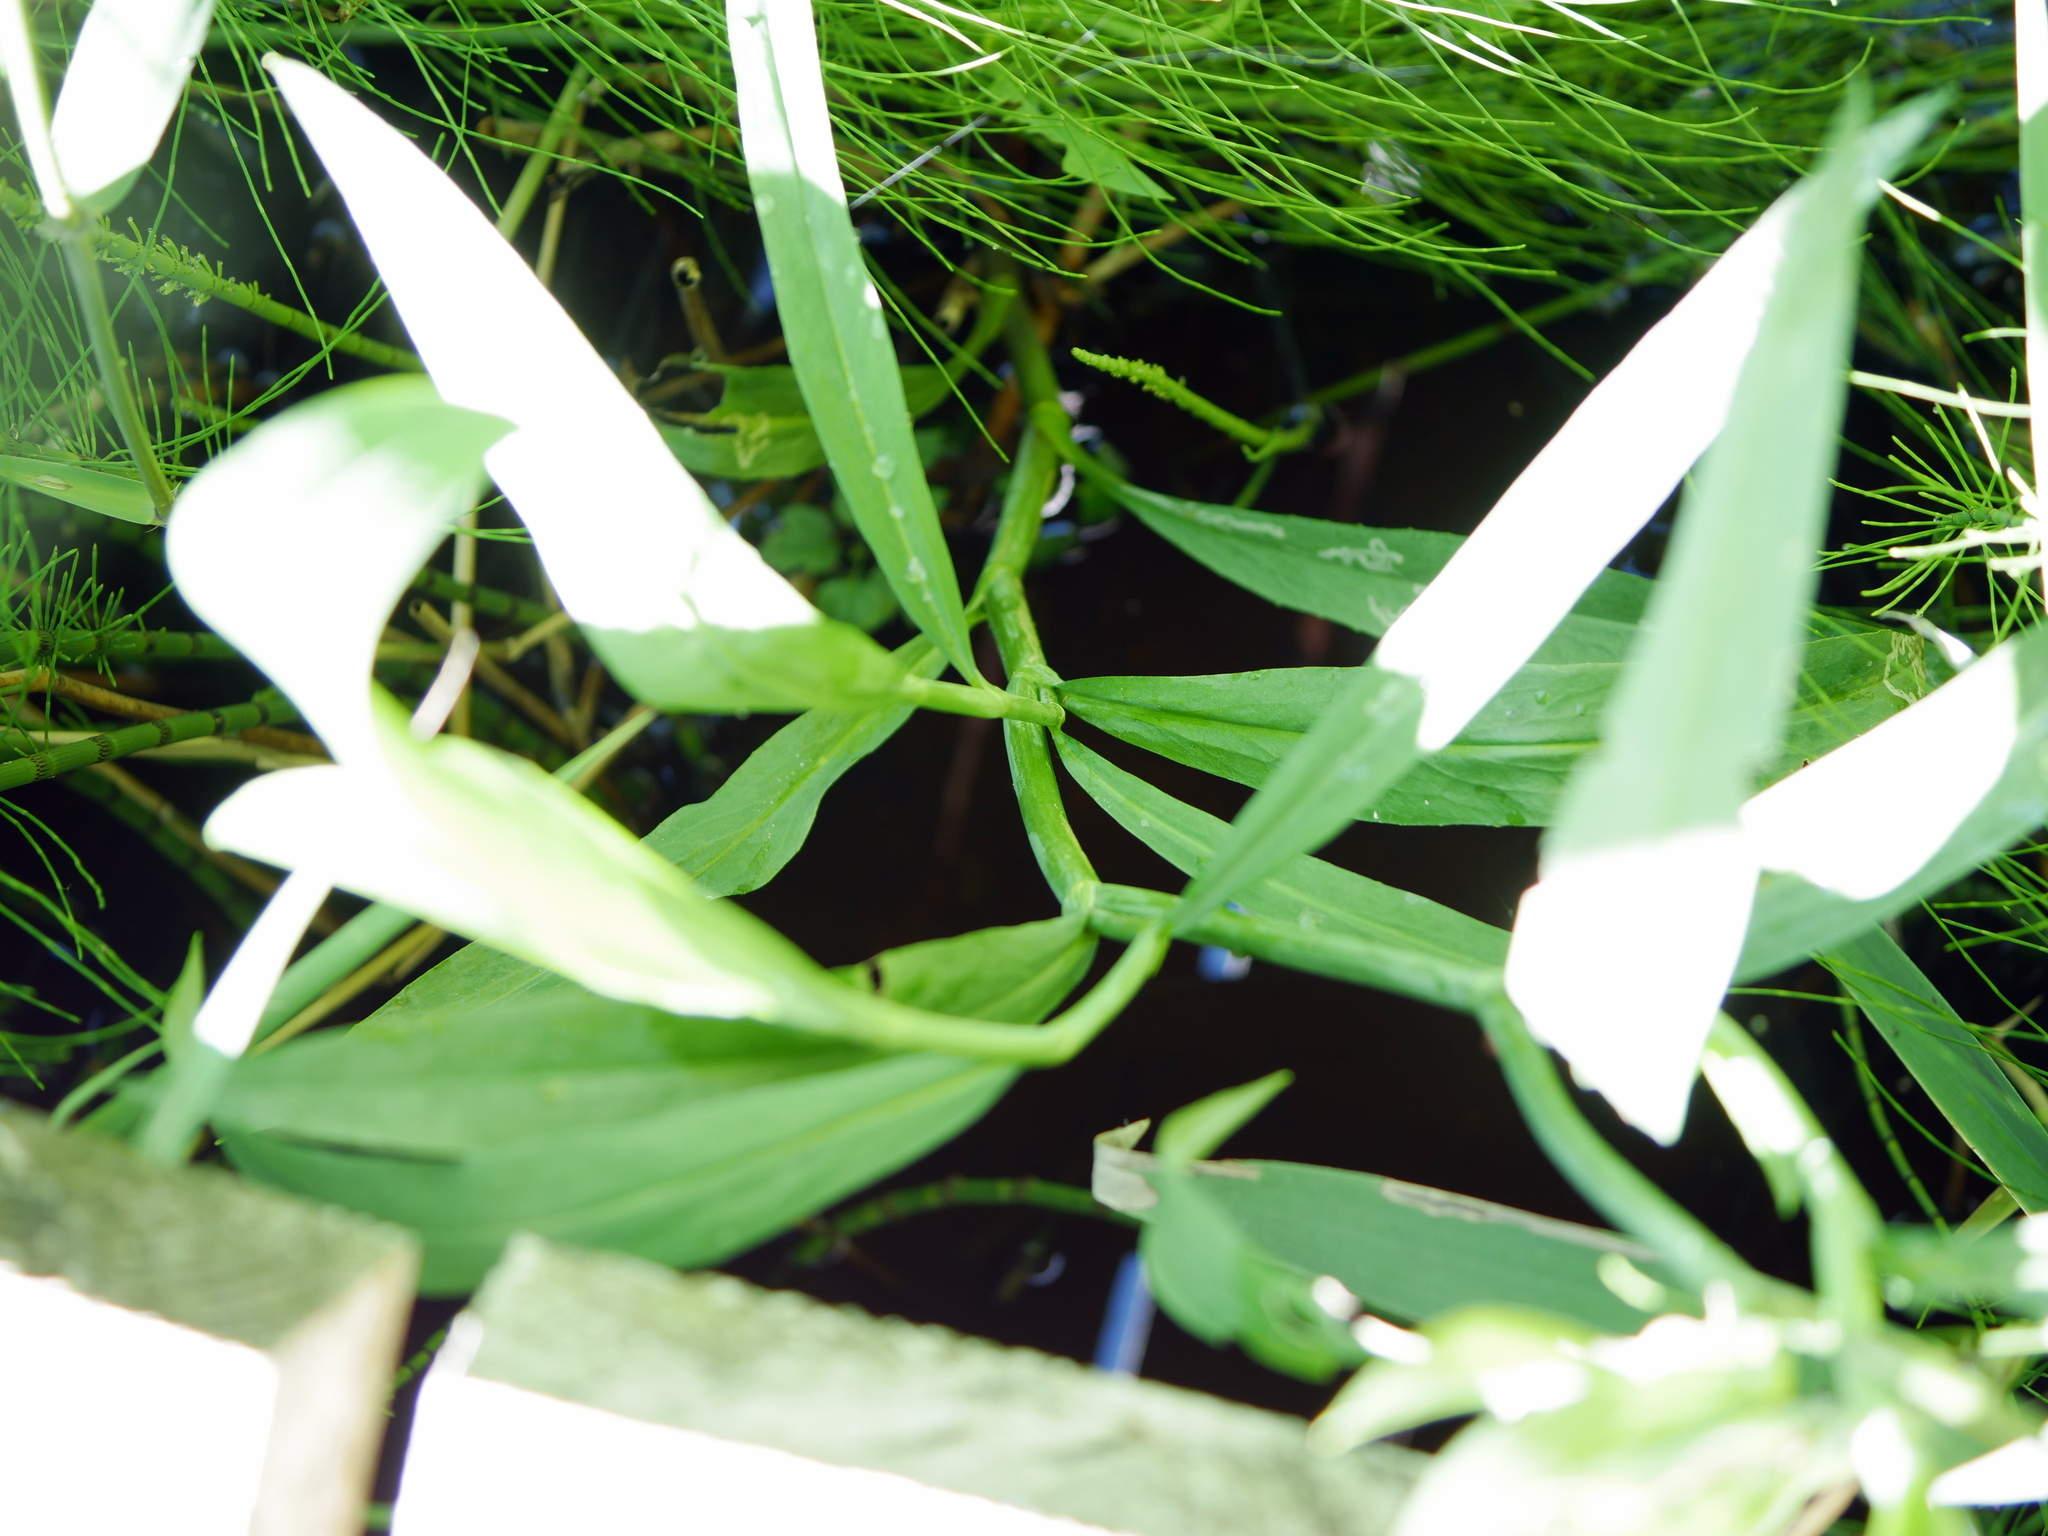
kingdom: Plantae
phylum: Tracheophyta
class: Magnoliopsida
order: Ranunculales
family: Ranunculaceae
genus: Ranunculus
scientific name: Ranunculus lingua
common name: Greater spearwort
